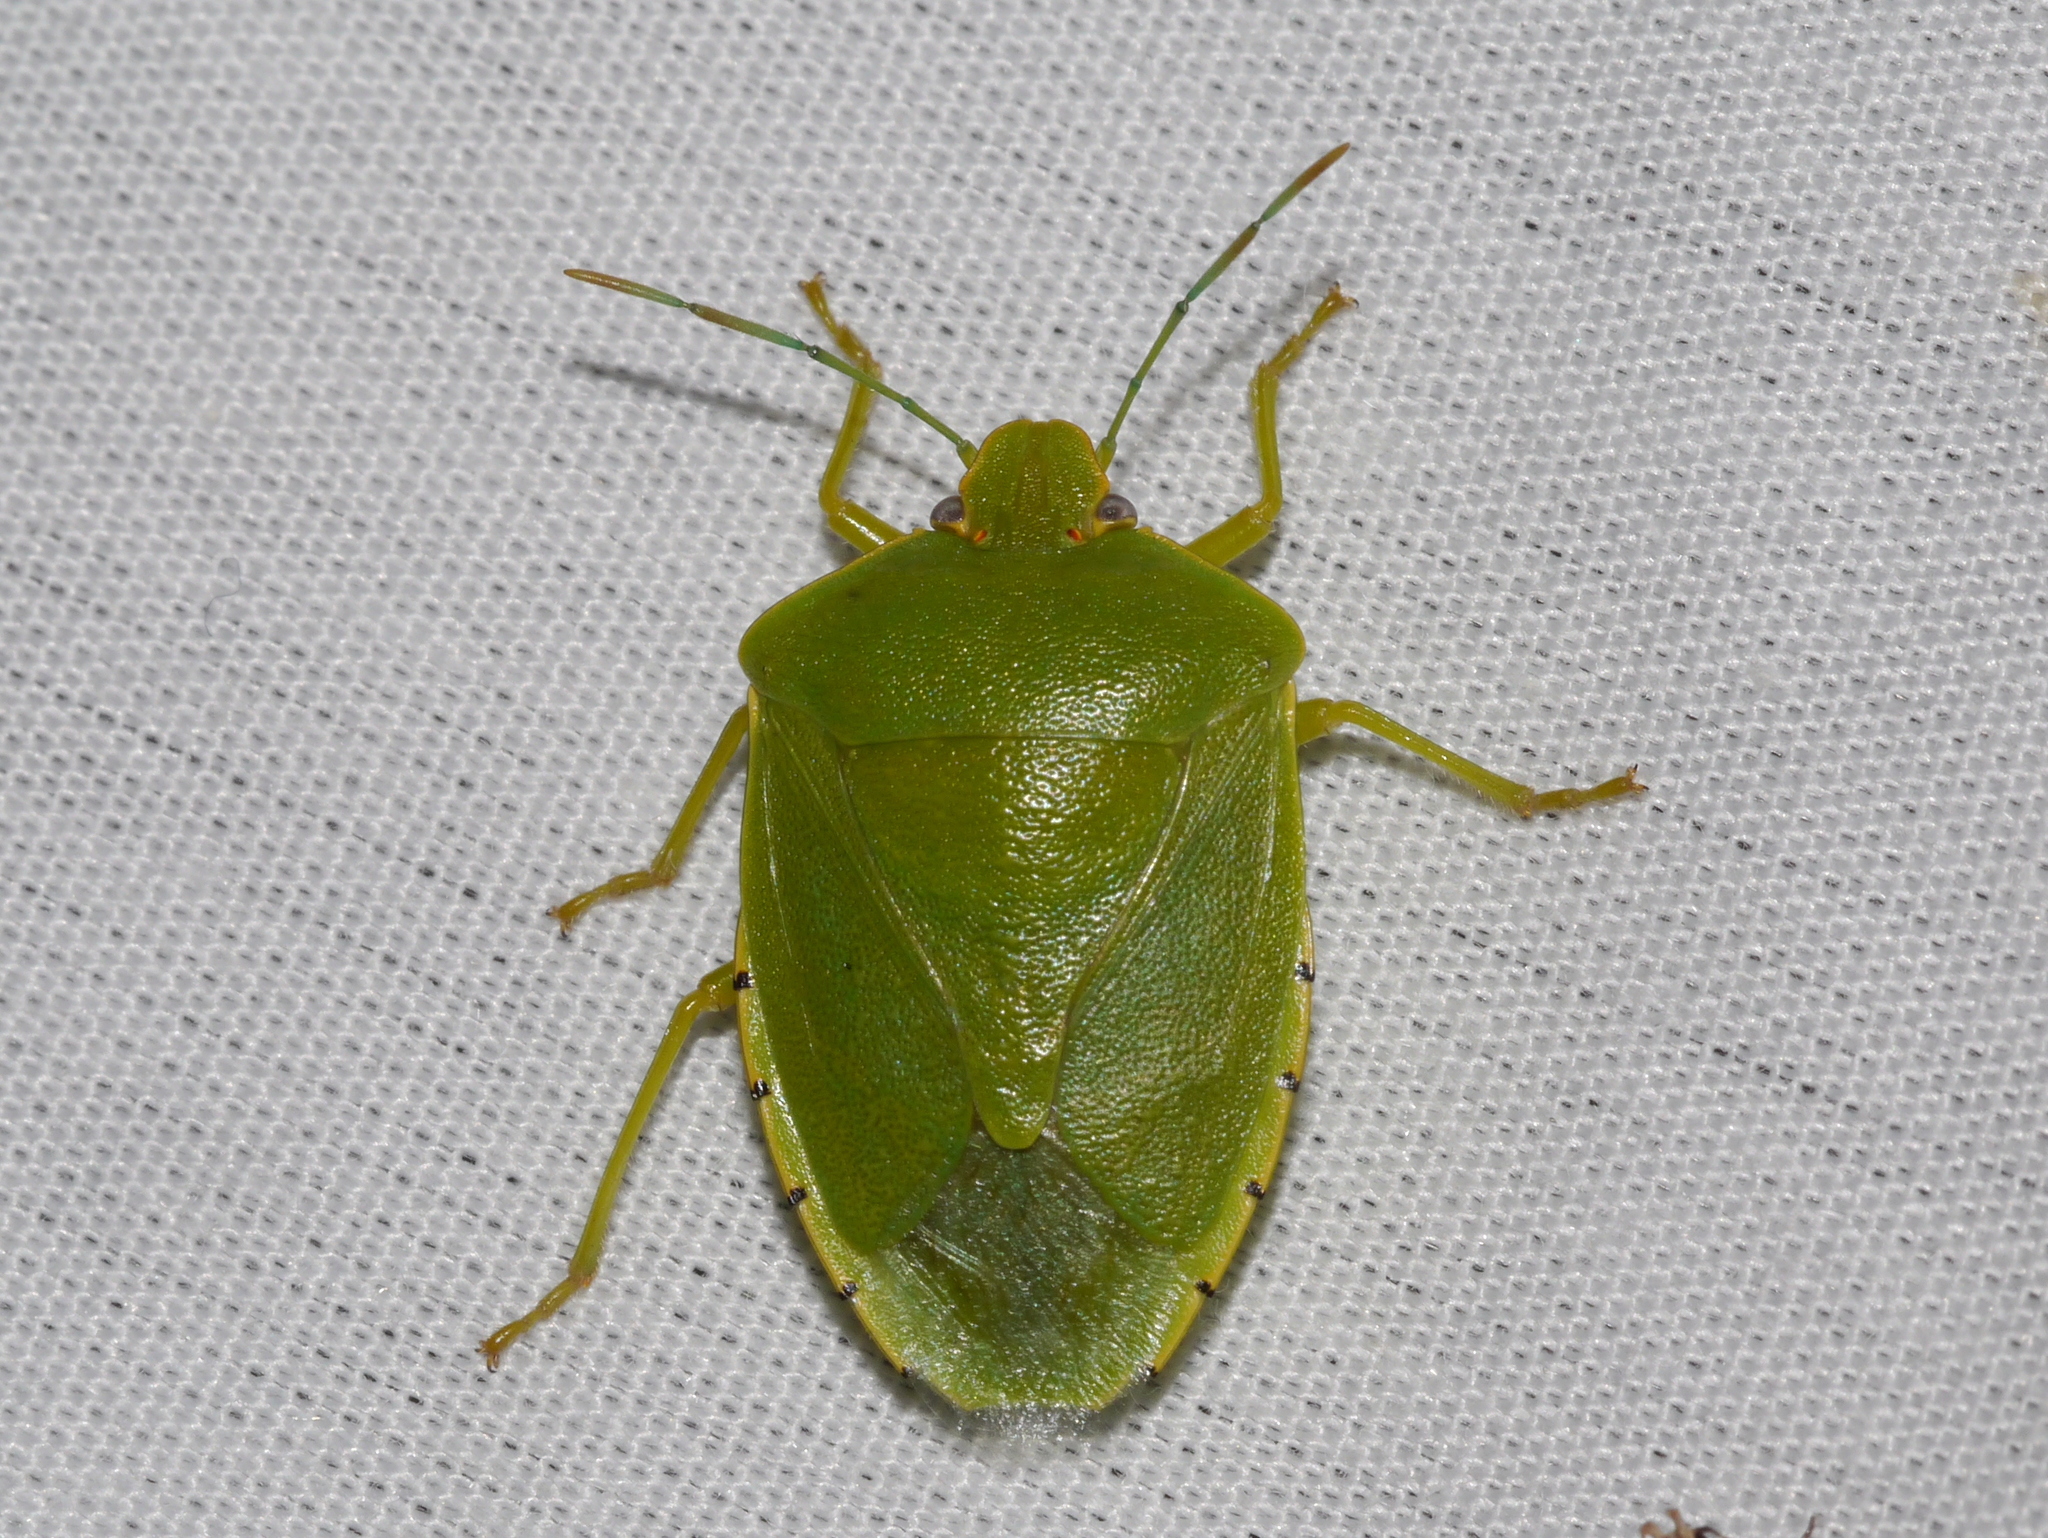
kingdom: Animalia
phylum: Arthropoda
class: Insecta
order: Hemiptera
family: Pentatomidae
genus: Chinavia
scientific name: Chinavia hilaris
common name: Green stink bug
